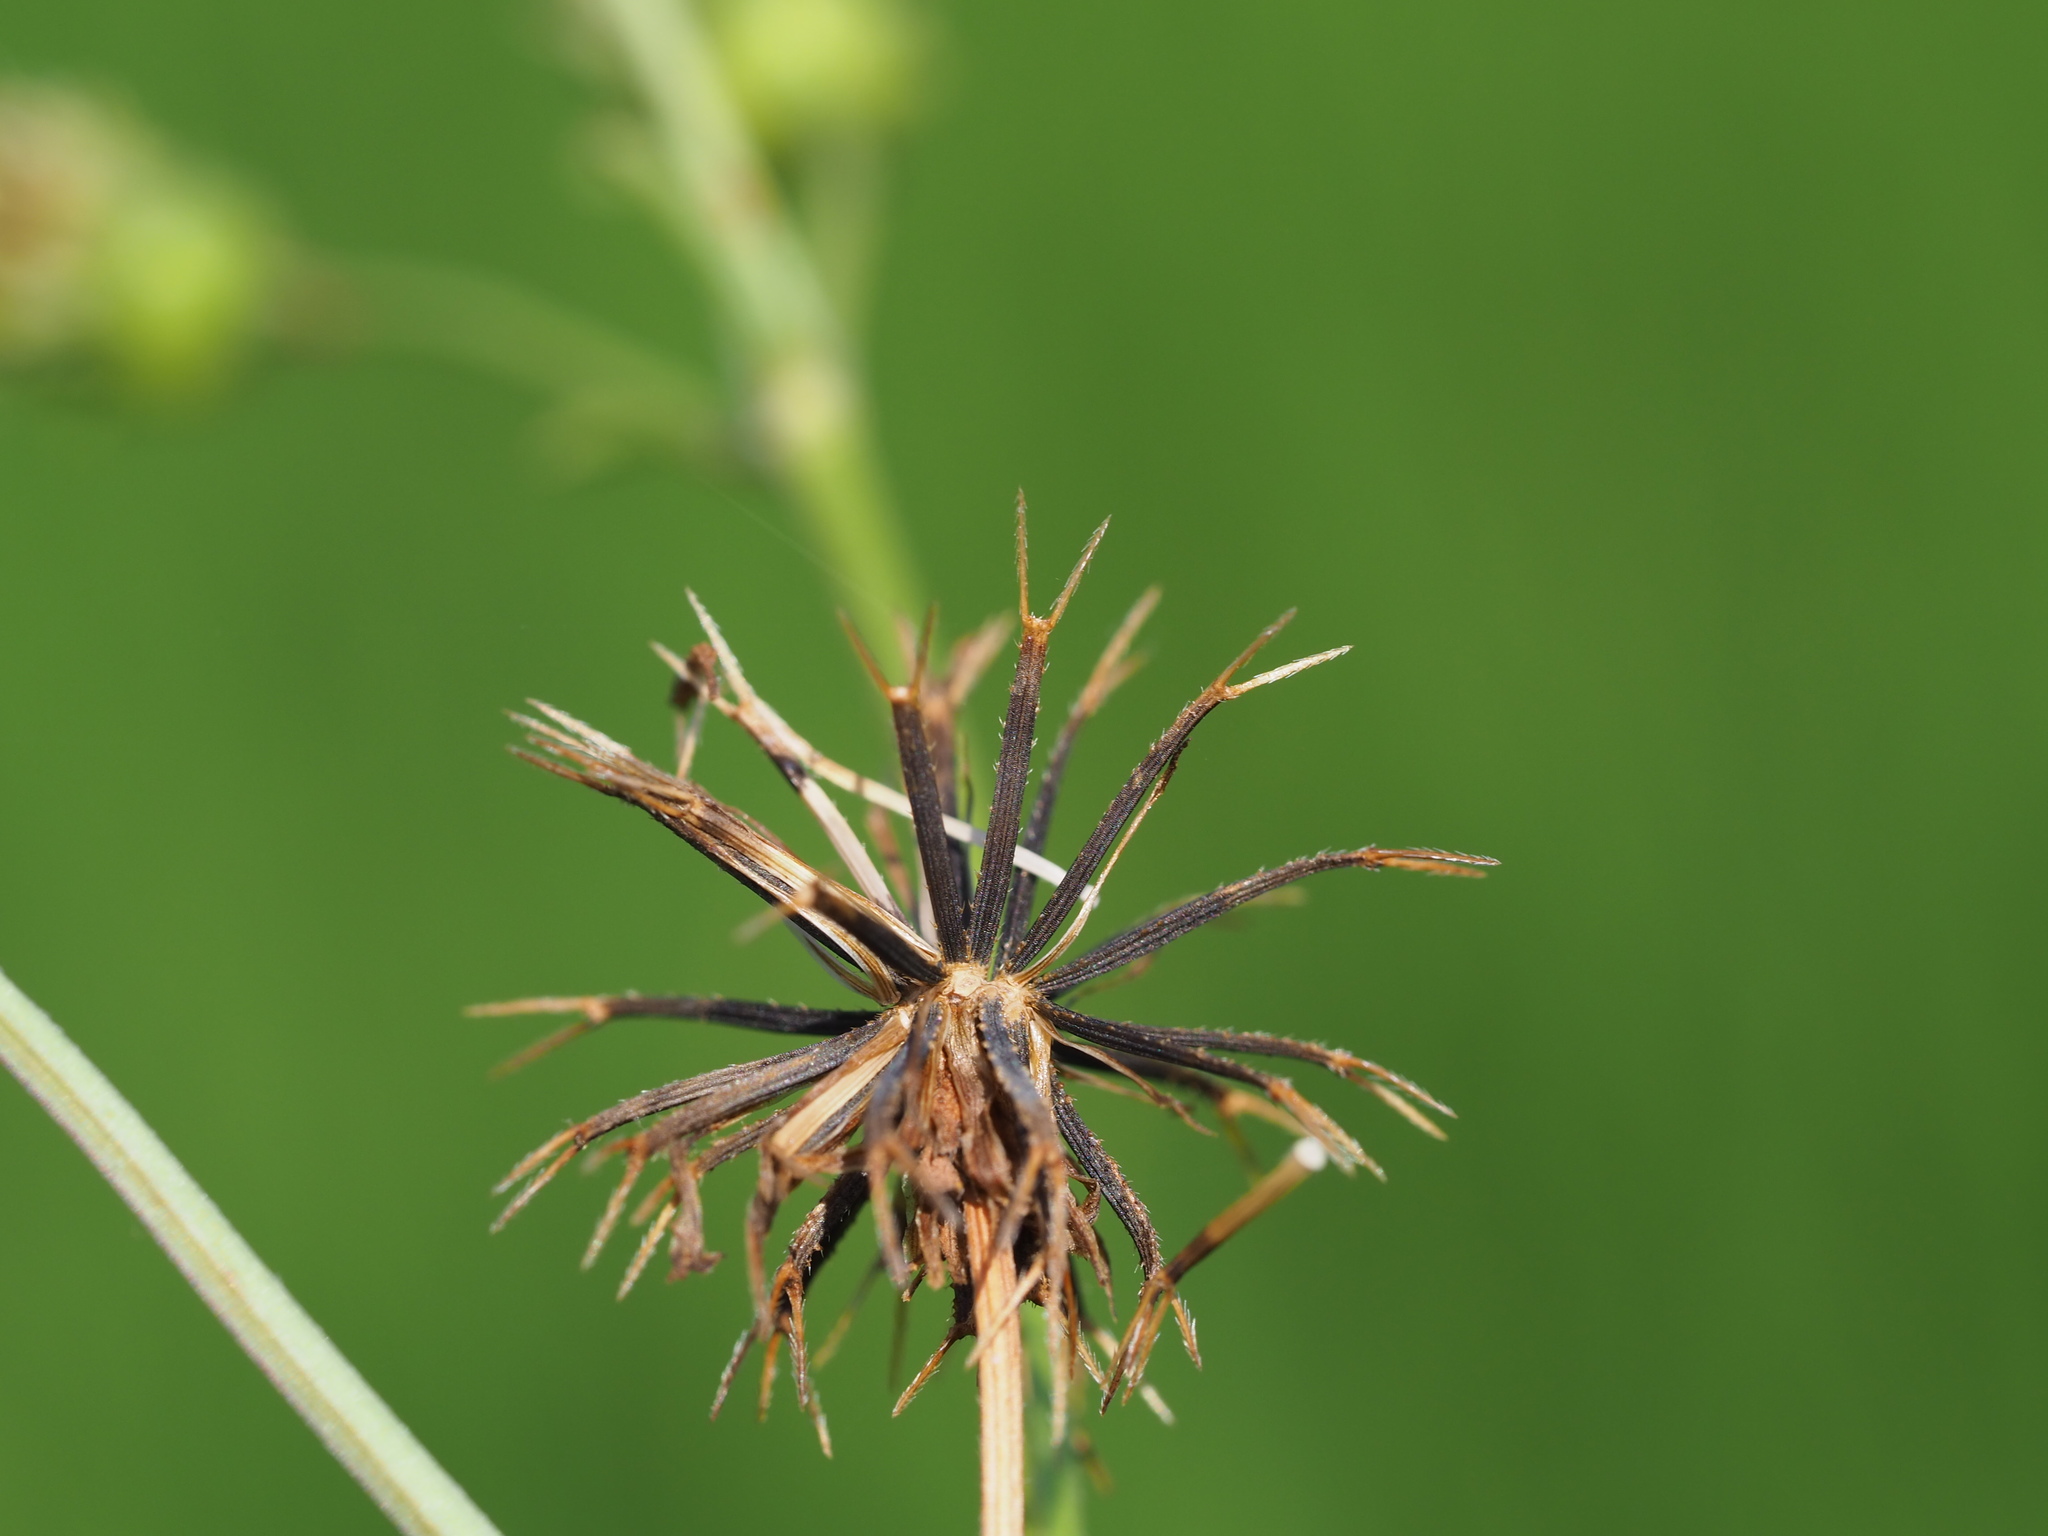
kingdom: Plantae
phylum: Tracheophyta
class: Magnoliopsida
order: Asterales
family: Asteraceae
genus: Bidens
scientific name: Bidens alba
